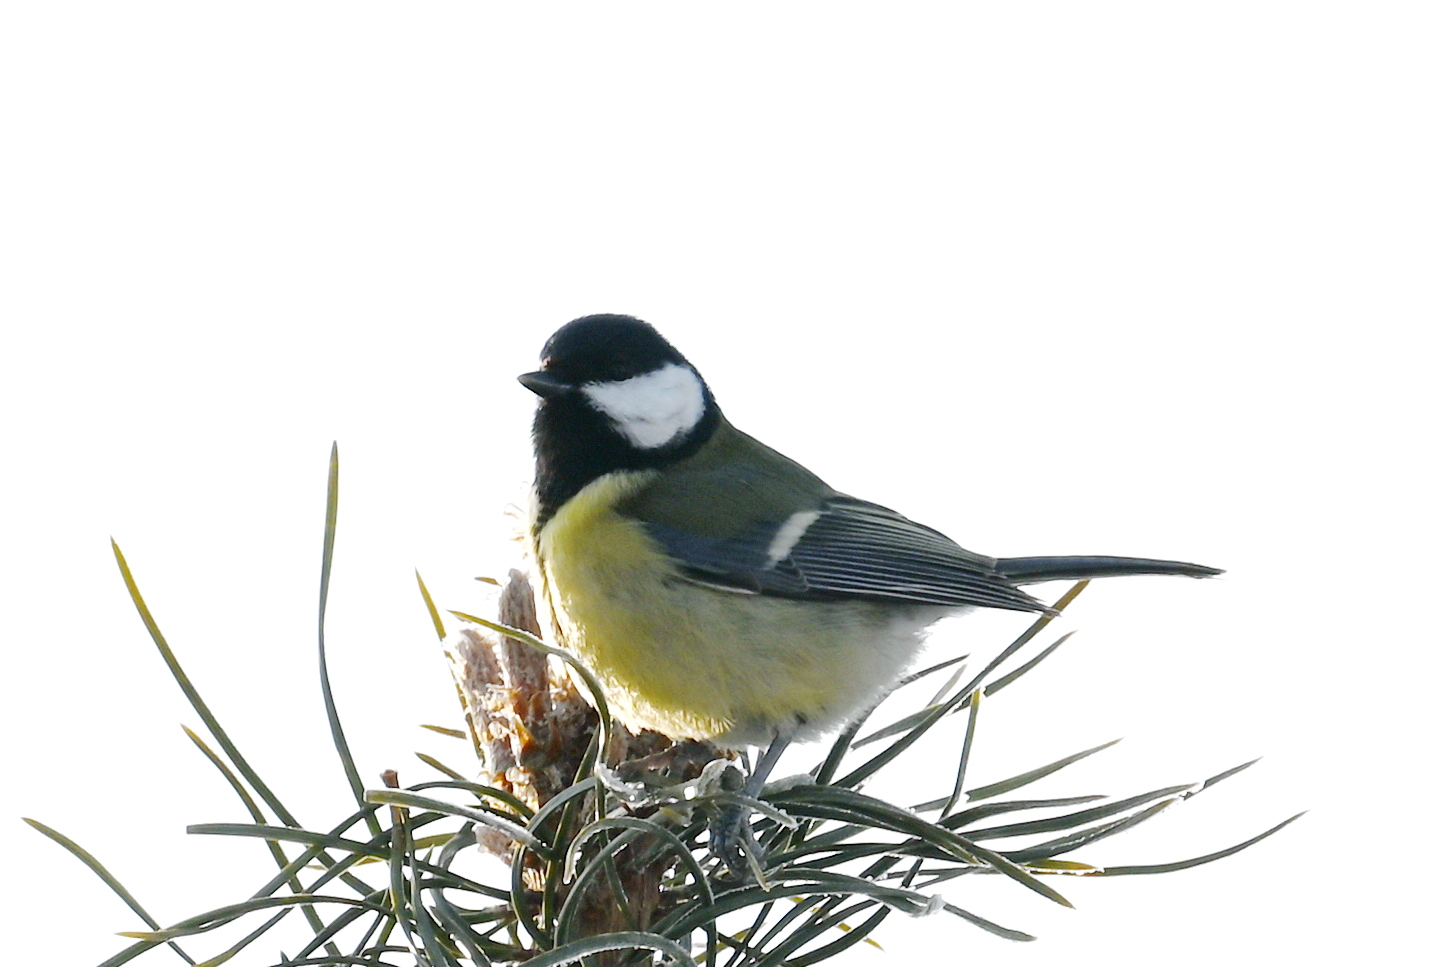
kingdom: Animalia
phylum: Chordata
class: Aves
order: Passeriformes
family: Paridae
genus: Parus
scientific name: Parus major
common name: Great tit
